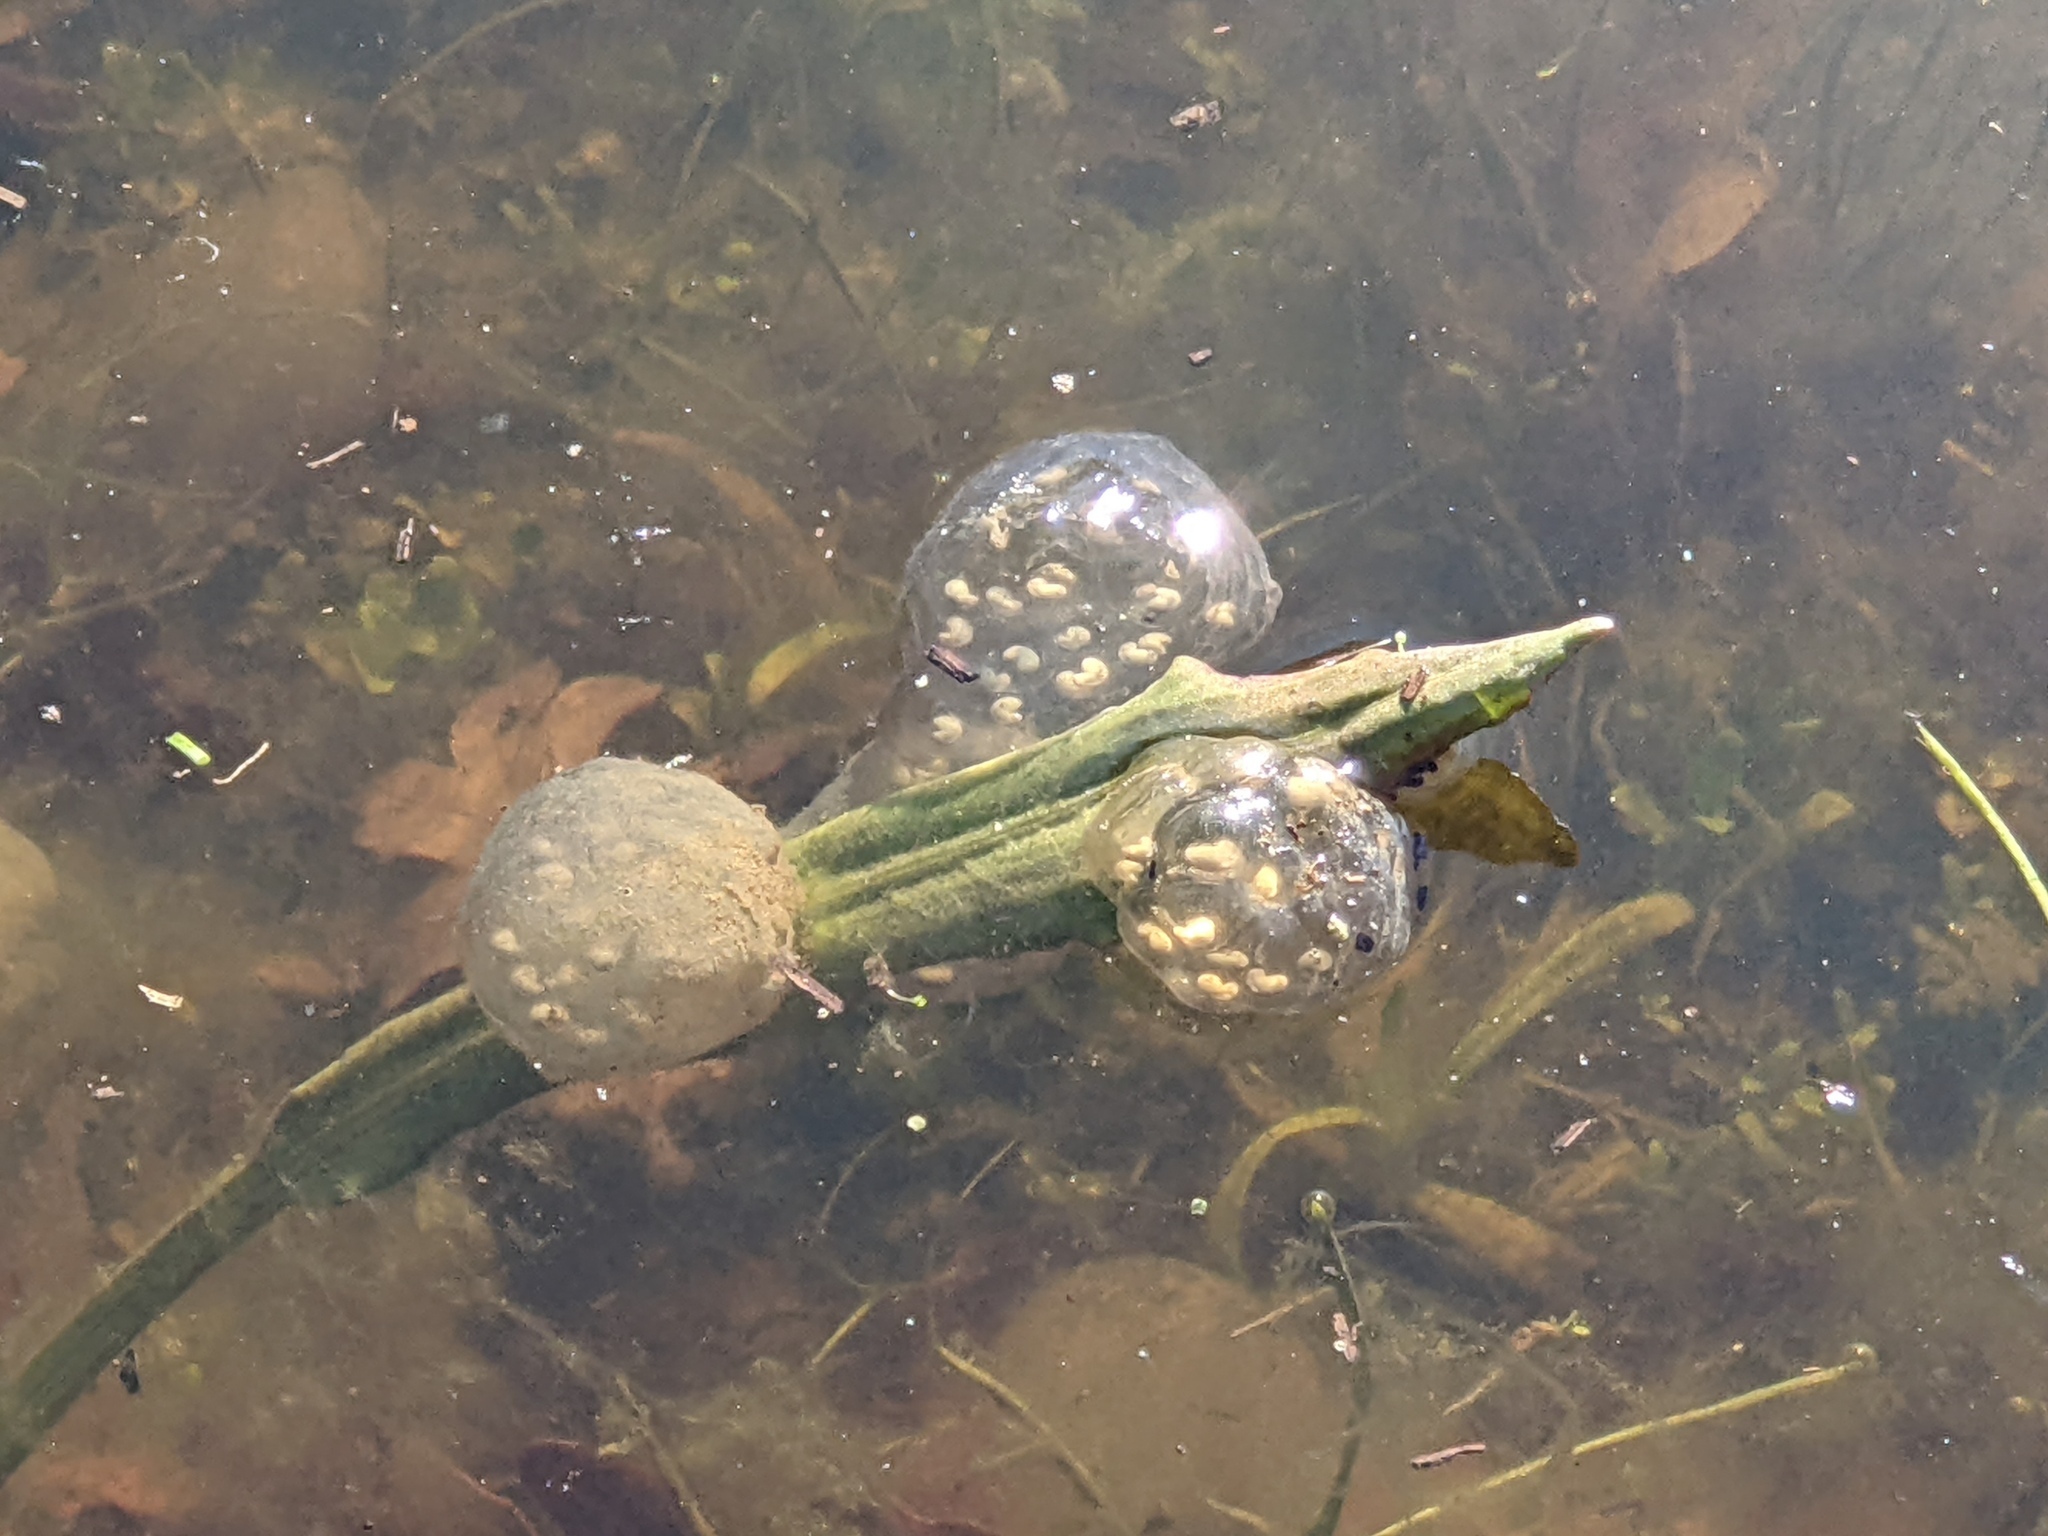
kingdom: Animalia
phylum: Chordata
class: Amphibia
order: Caudata
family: Salamandridae
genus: Taricha
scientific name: Taricha torosa
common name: California newt
